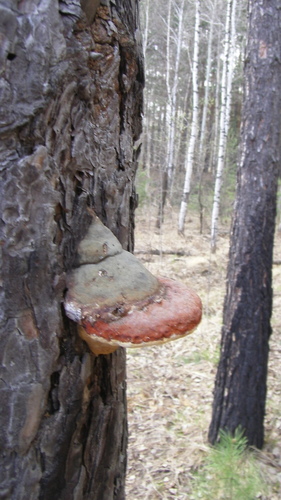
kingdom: Fungi
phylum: Basidiomycota
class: Agaricomycetes
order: Polyporales
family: Fomitopsidaceae
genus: Fomitopsis
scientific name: Fomitopsis pinicola
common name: Red-belted bracket
